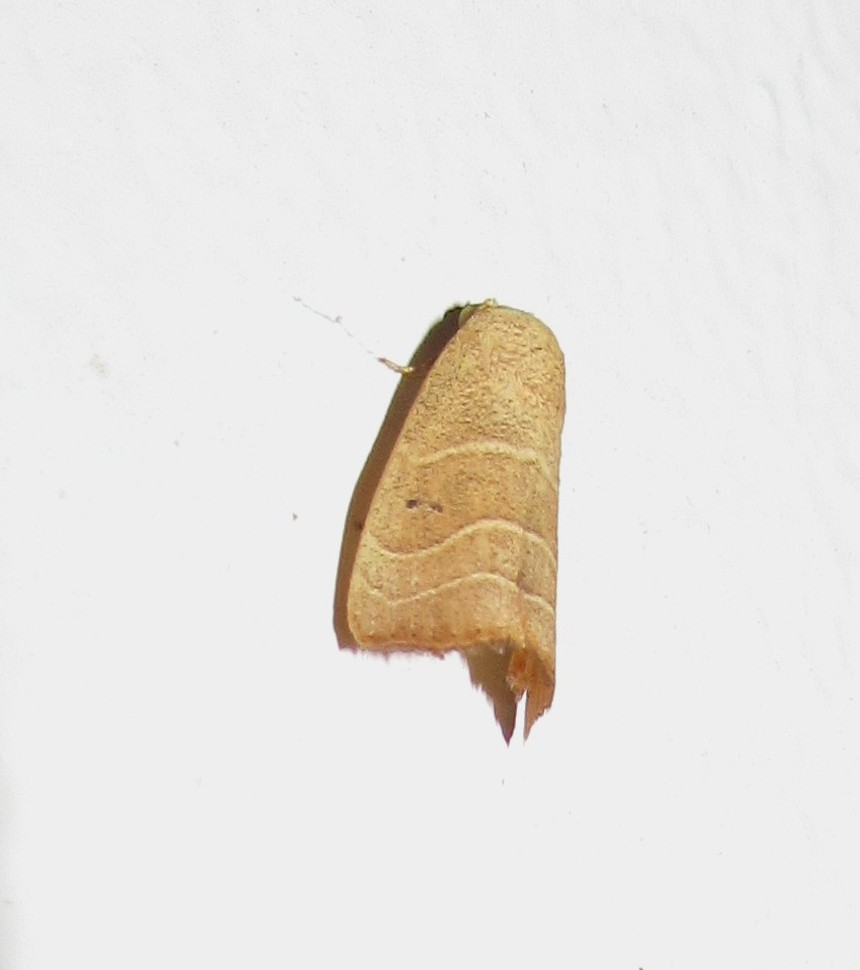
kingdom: Animalia
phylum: Arthropoda
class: Insecta
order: Lepidoptera
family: Noctuidae
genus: Bagisara
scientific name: Bagisara repanda
